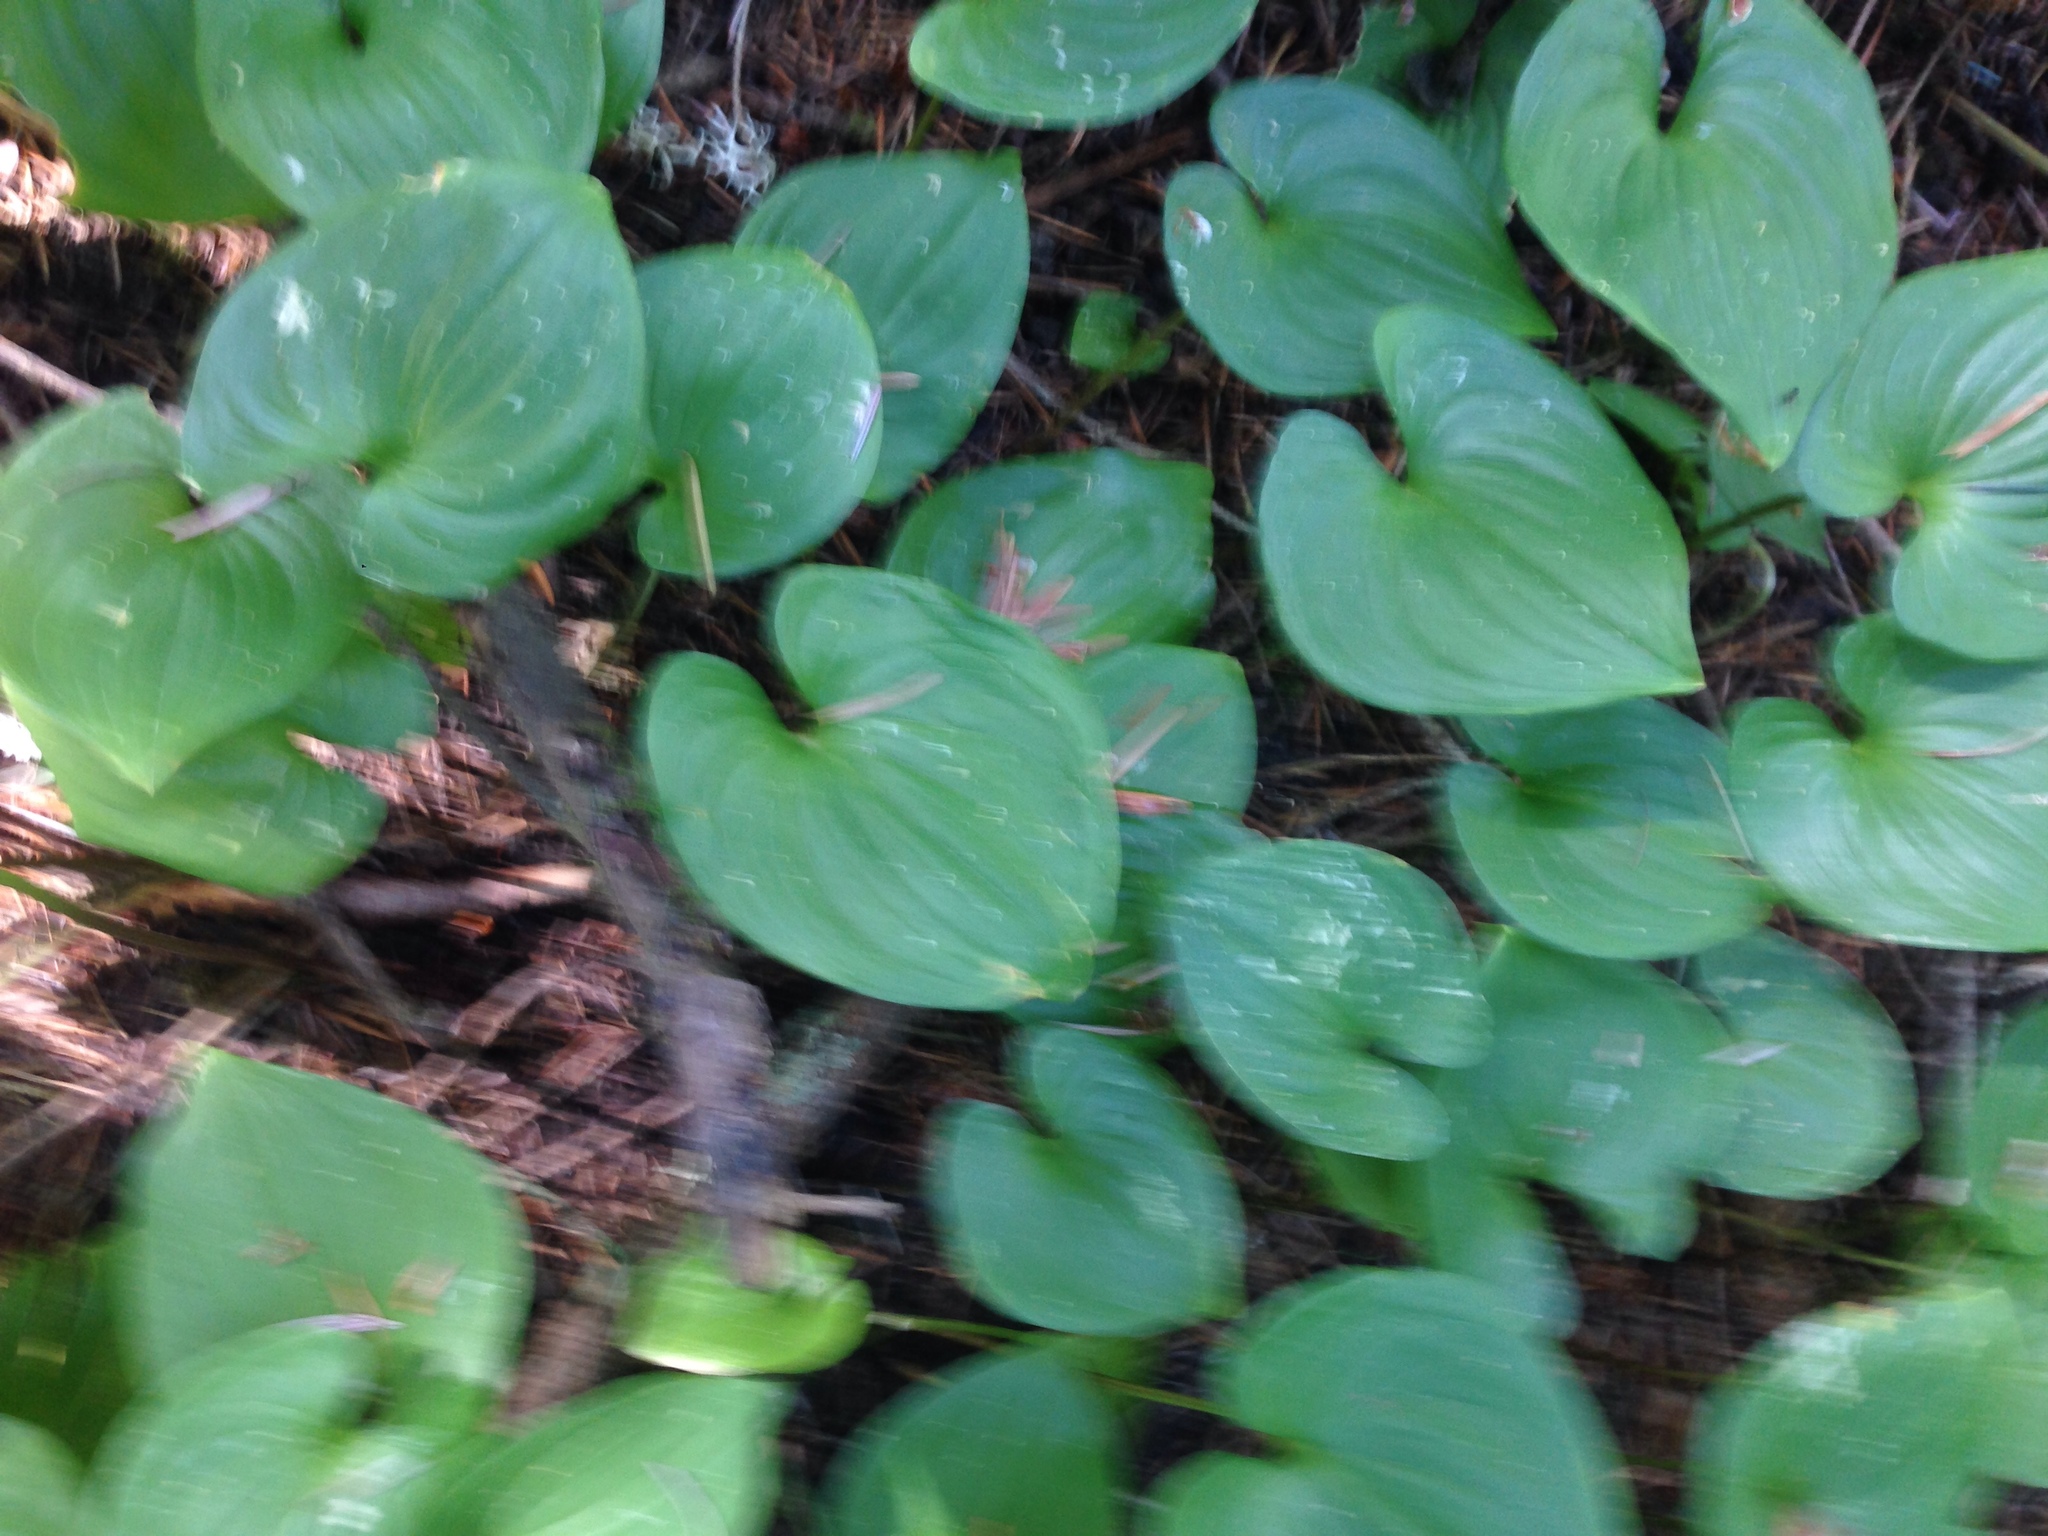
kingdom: Plantae
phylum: Tracheophyta
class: Liliopsida
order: Asparagales
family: Asparagaceae
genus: Maianthemum
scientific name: Maianthemum dilatatum
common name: False lily-of-the-valley
